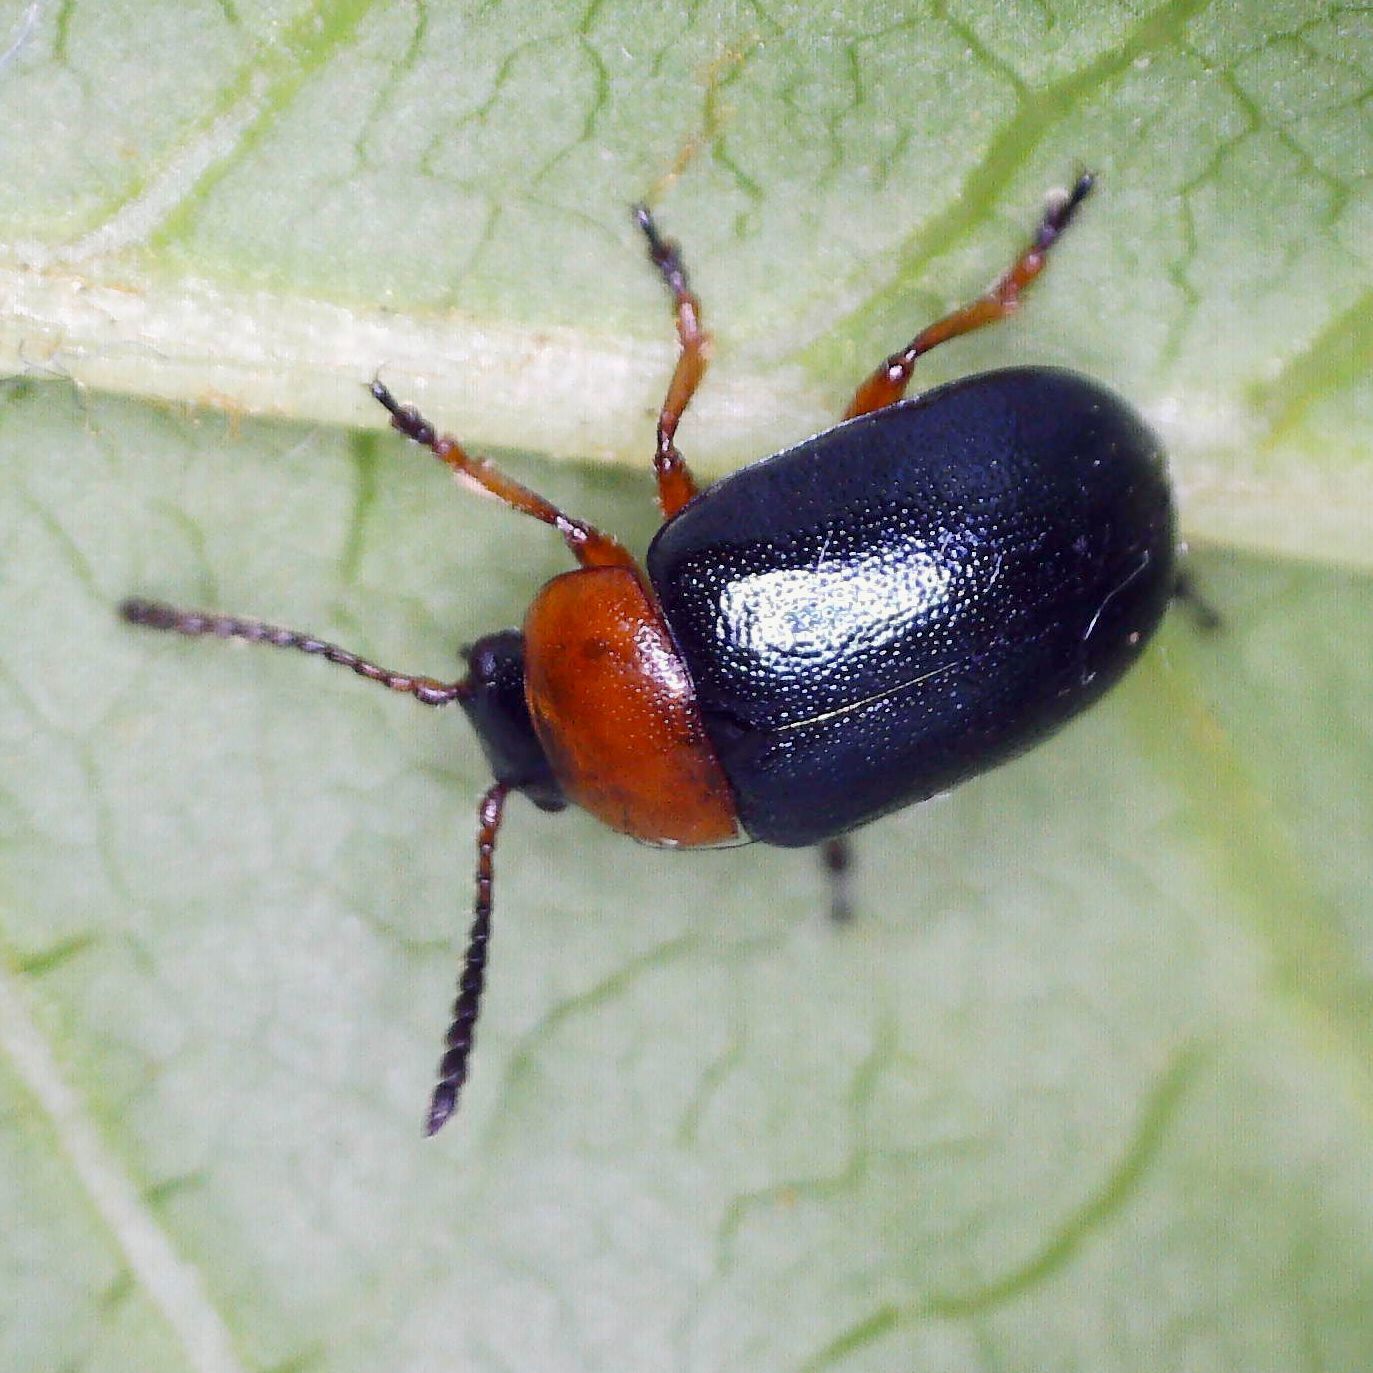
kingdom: Animalia
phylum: Arthropoda
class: Insecta
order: Coleoptera
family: Chrysomelidae
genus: Gastrophysa
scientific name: Gastrophysa polygoni
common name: Knotweed leaf beetle
